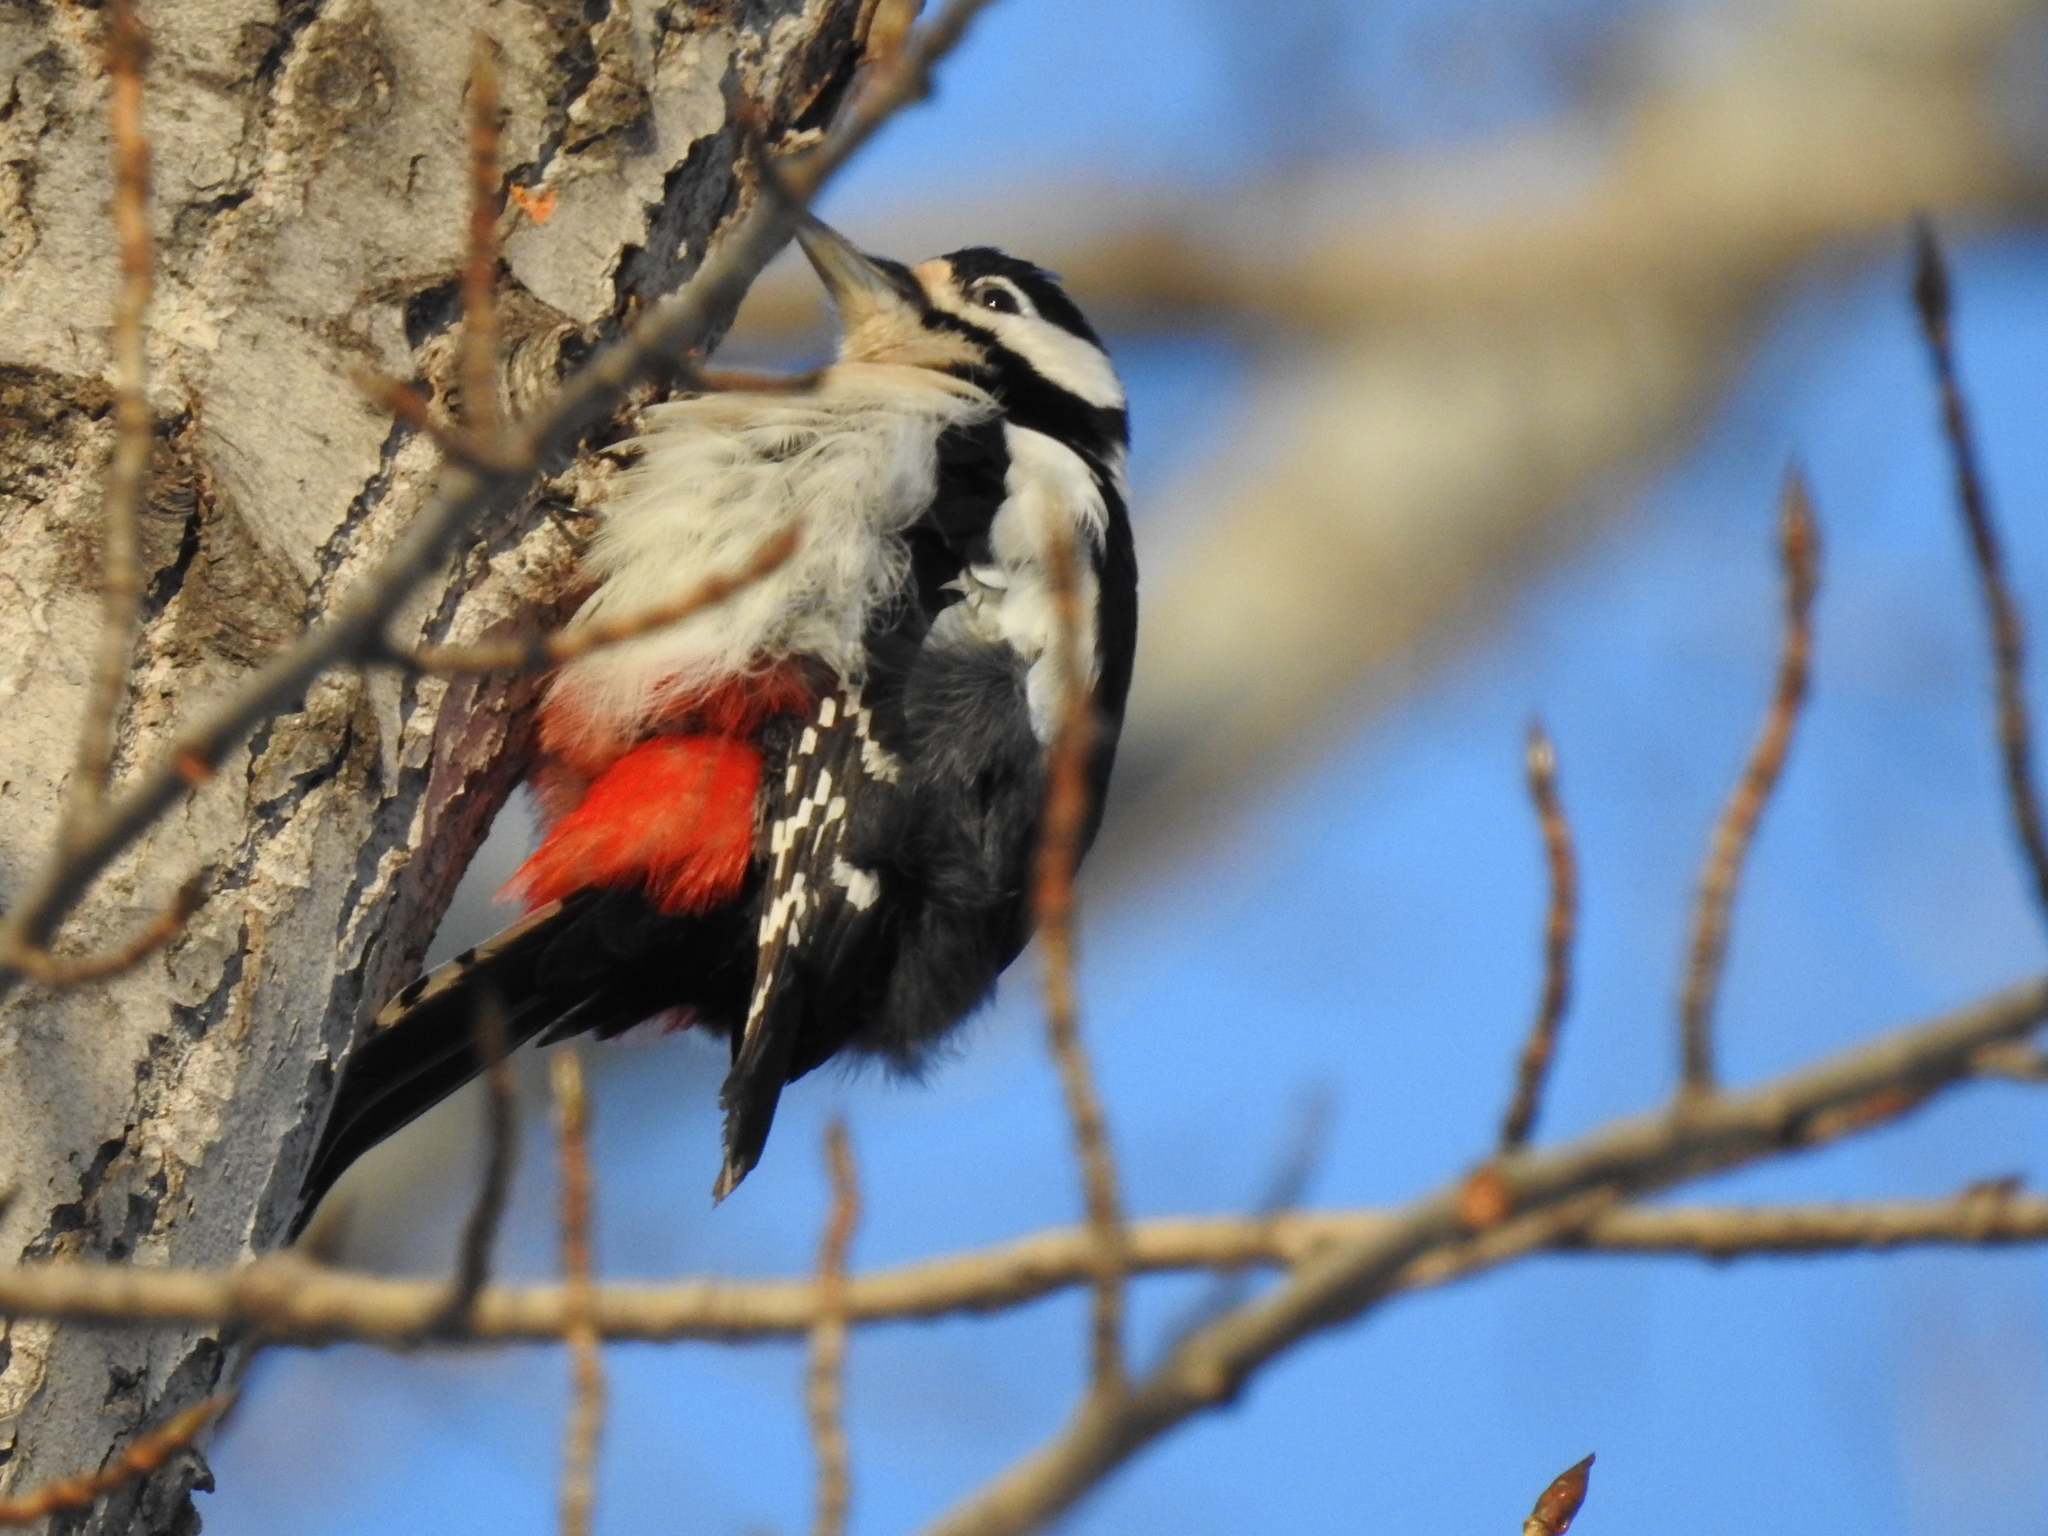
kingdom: Animalia
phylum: Chordata
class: Aves
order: Piciformes
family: Picidae
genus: Dendrocopos
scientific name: Dendrocopos major
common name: Great spotted woodpecker
